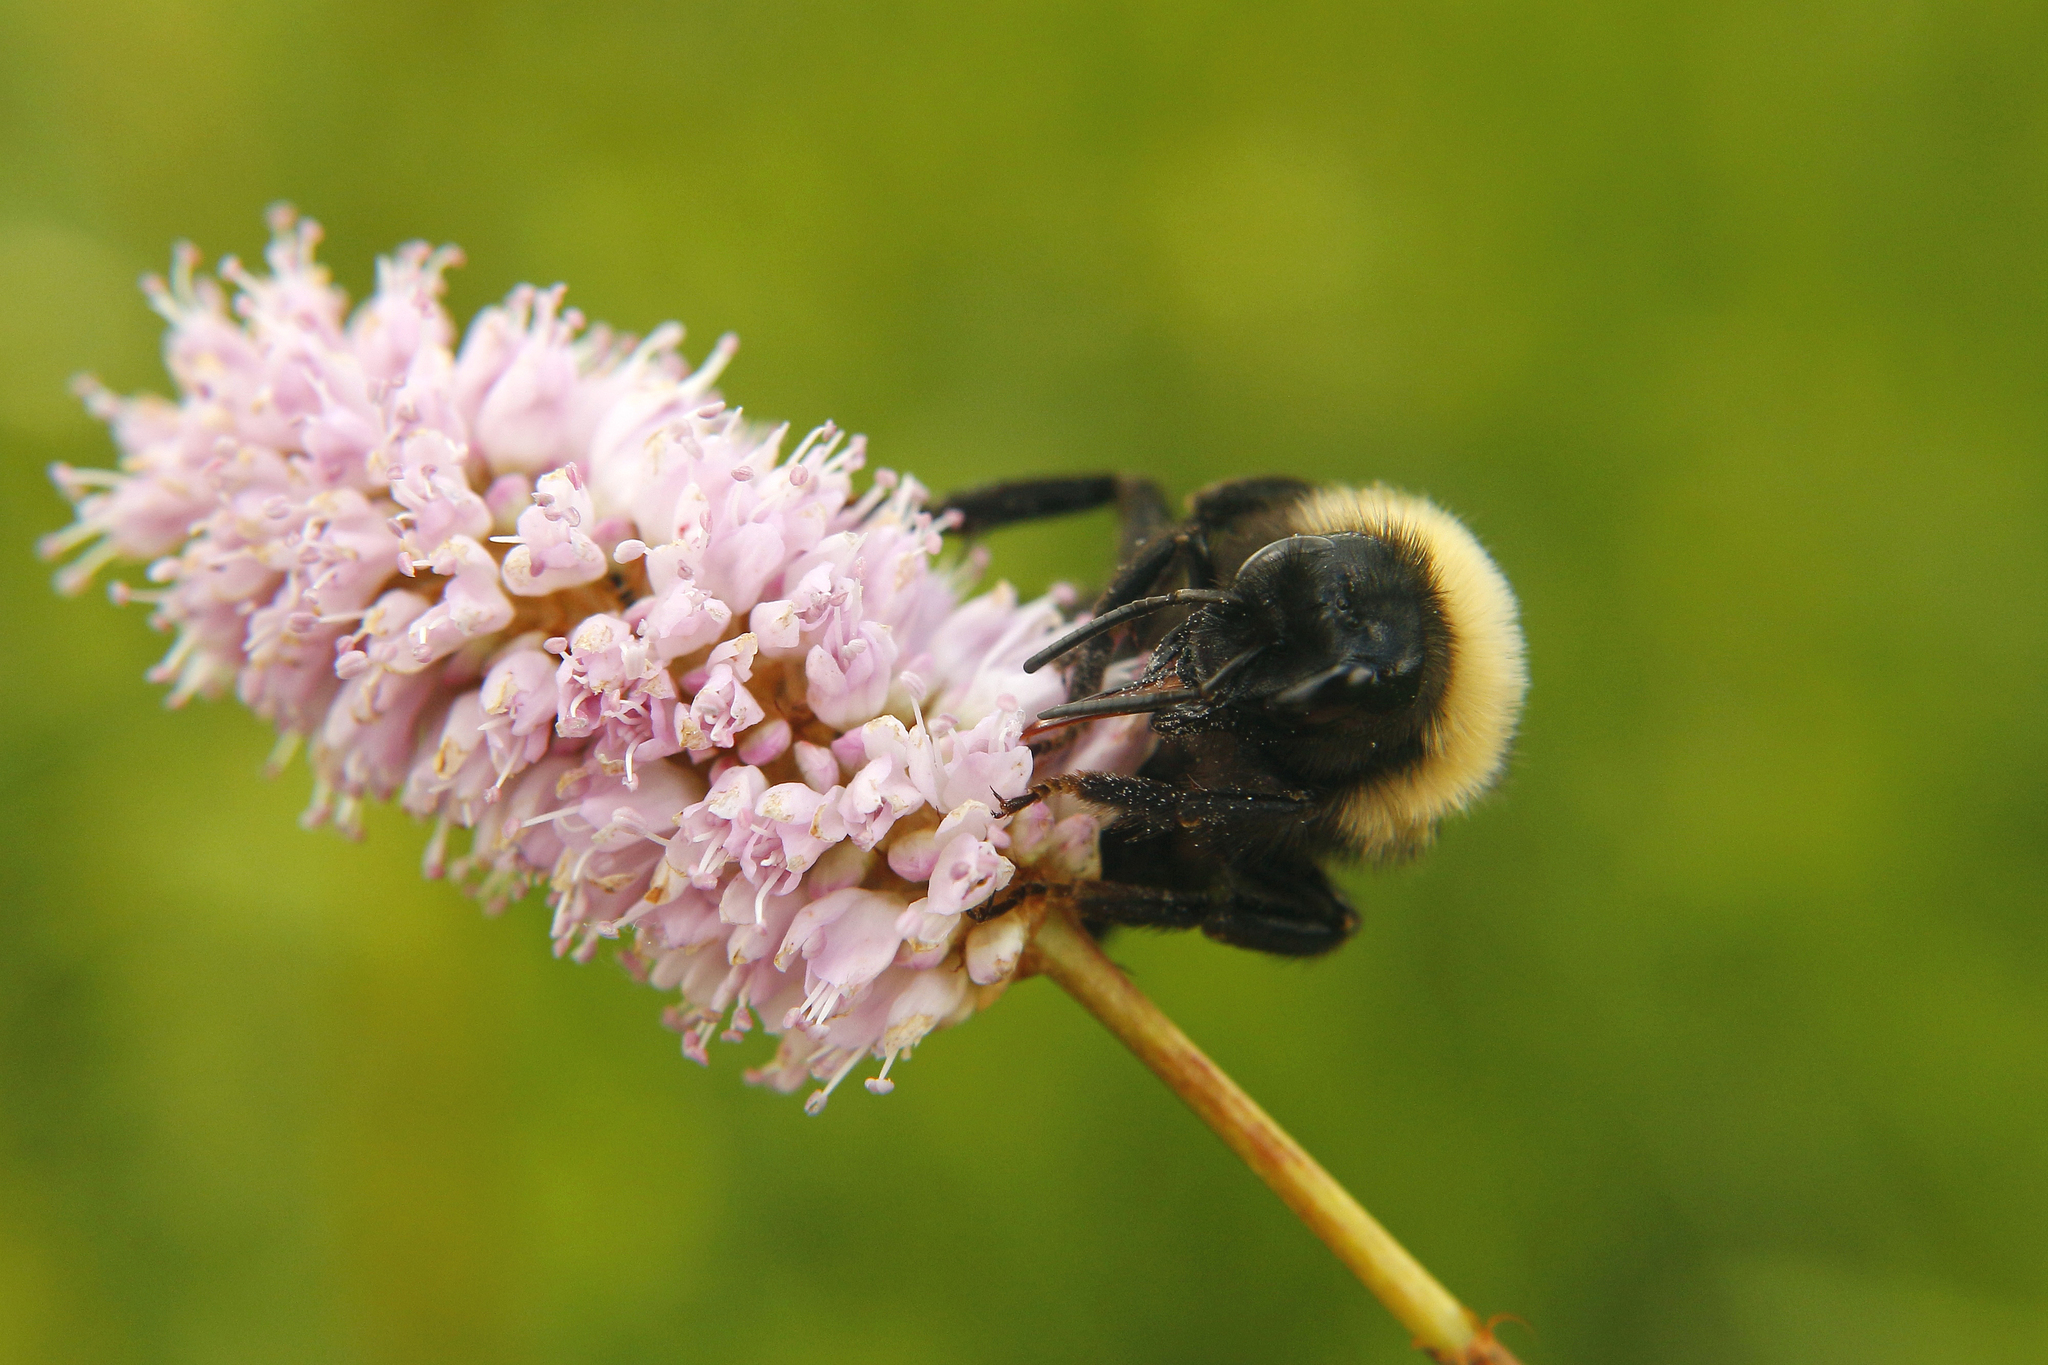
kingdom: Plantae
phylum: Tracheophyta
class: Magnoliopsida
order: Caryophyllales
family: Polygonaceae
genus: Bistorta
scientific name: Bistorta officinalis
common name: Common bistort
